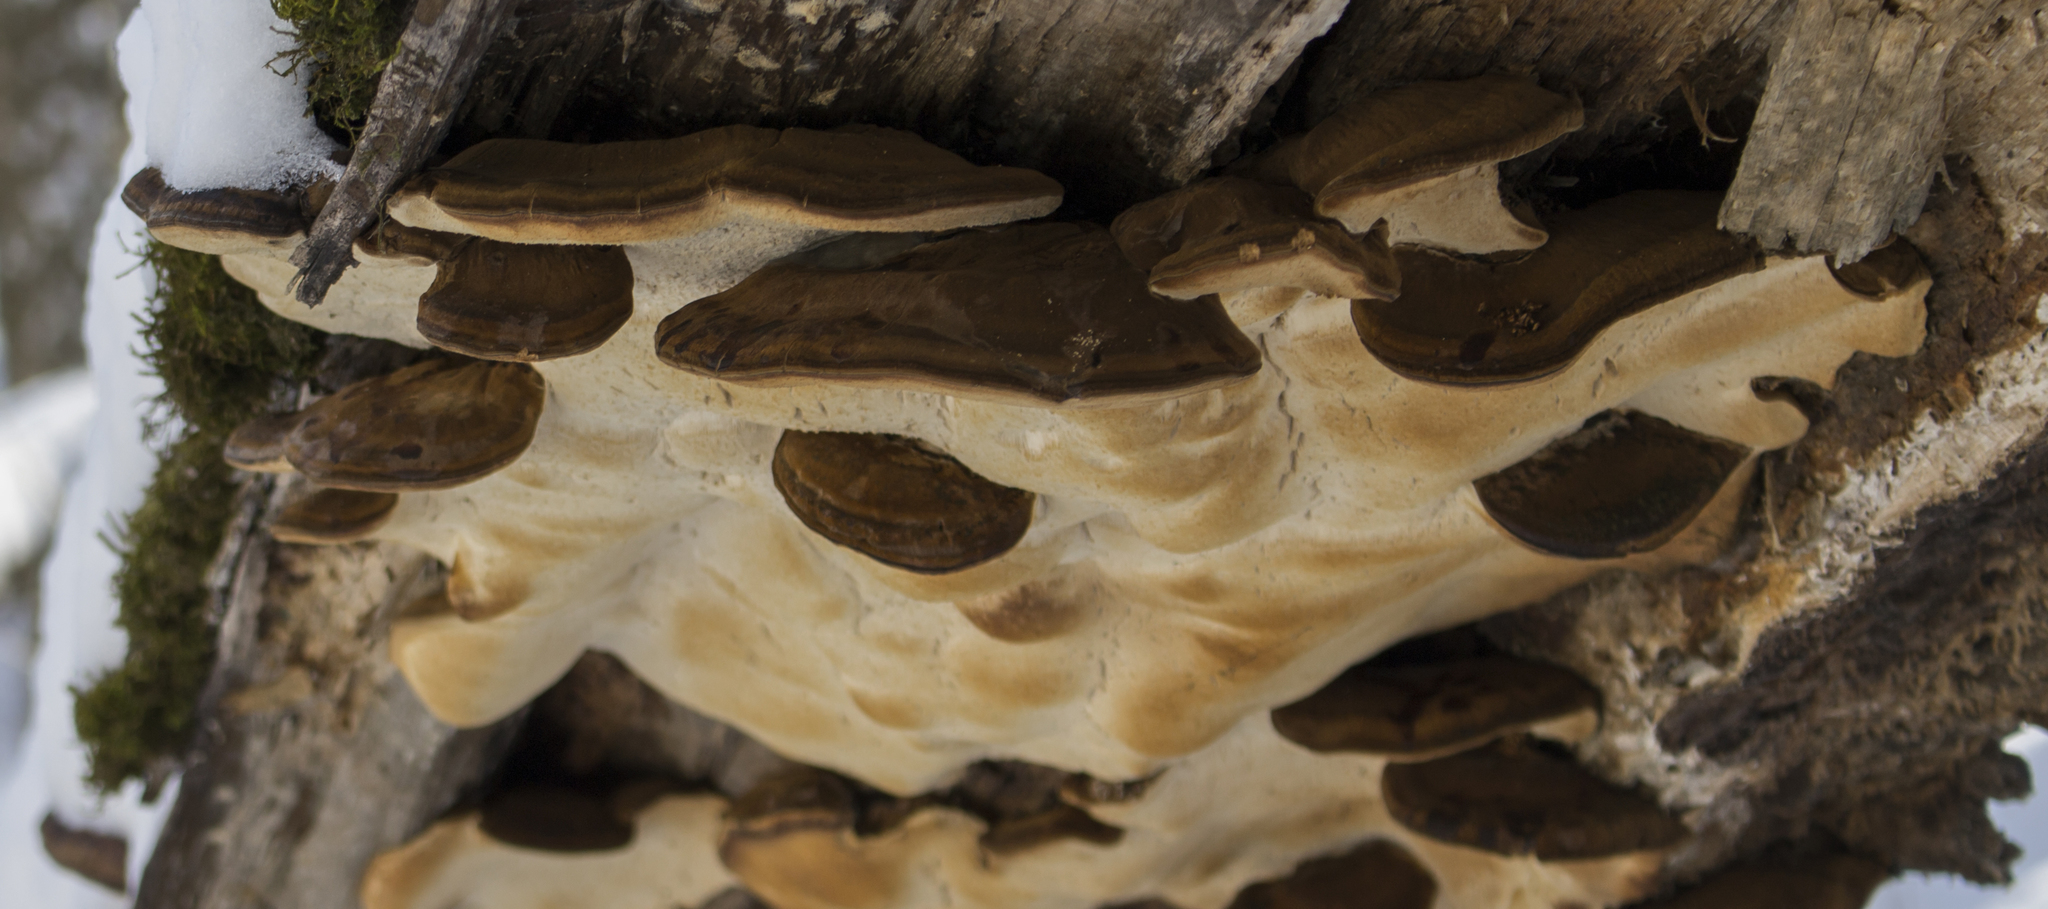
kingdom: Fungi
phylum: Basidiomycota
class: Agaricomycetes
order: Polyporales
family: Ischnodermataceae
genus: Ischnoderma
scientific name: Ischnoderma resinosum
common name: Resinous polypore
